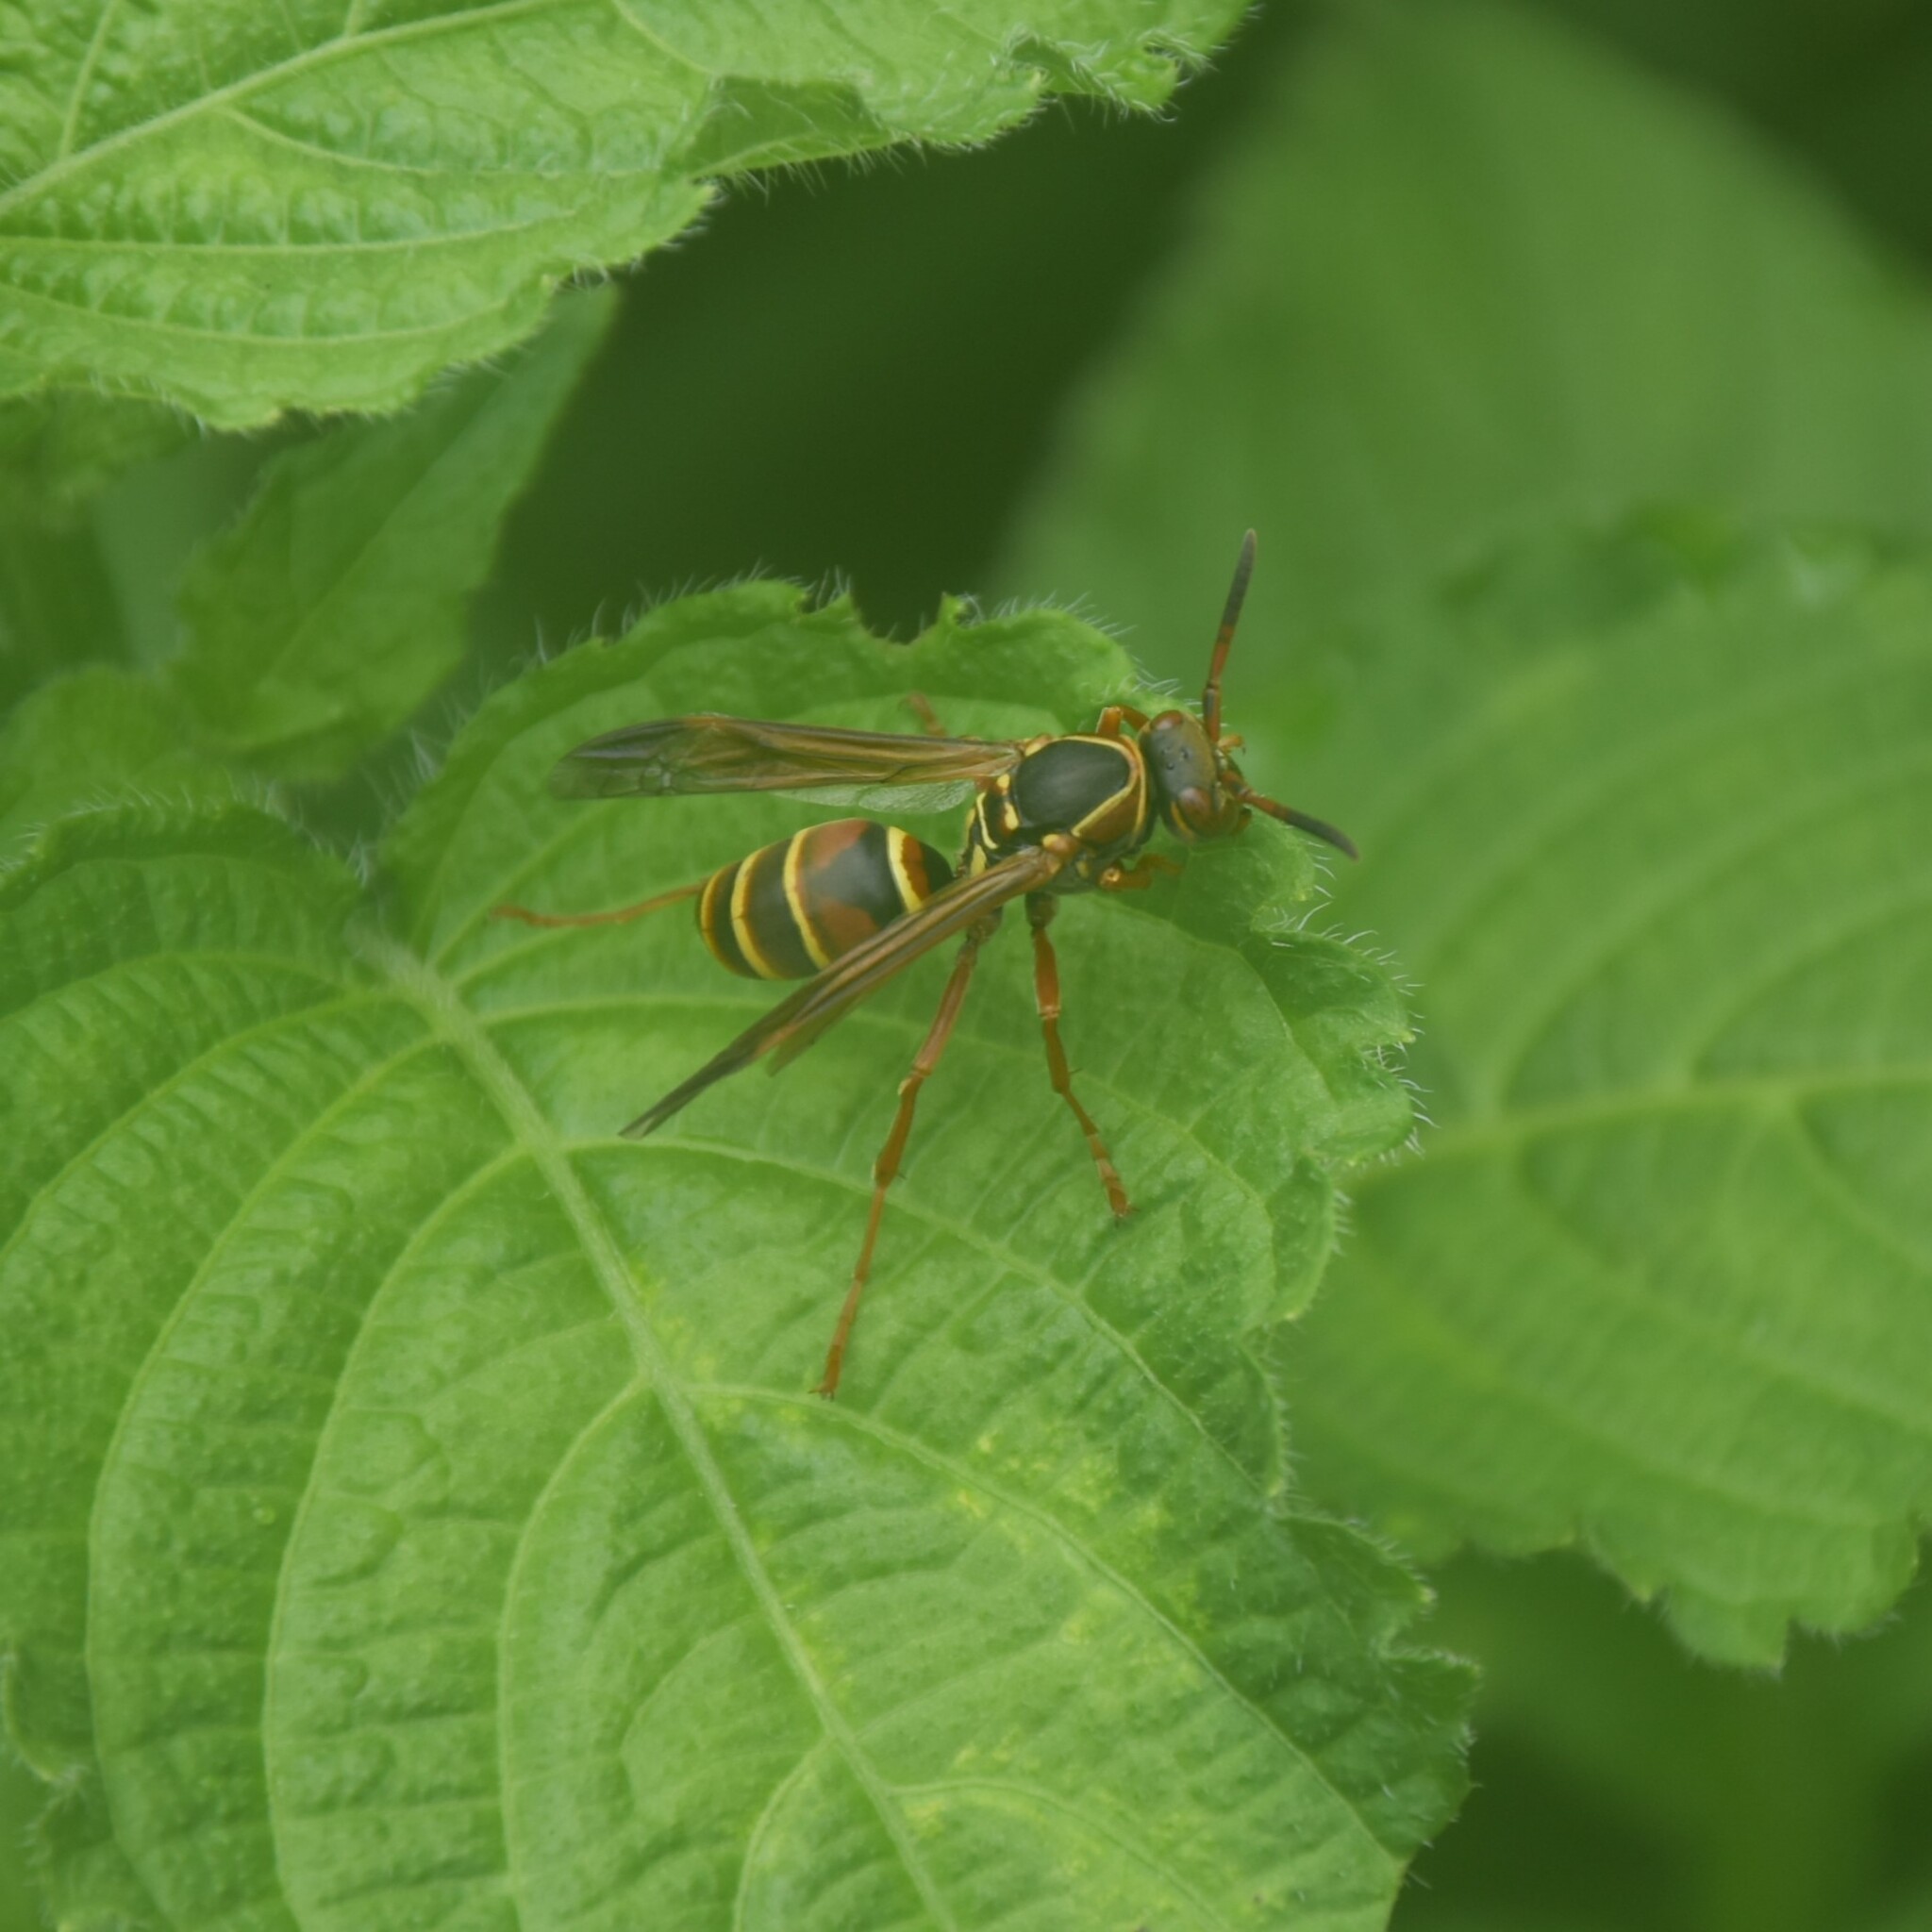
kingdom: Animalia
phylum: Arthropoda
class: Insecta
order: Hymenoptera
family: Eumenidae
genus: Knemodynerus
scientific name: Knemodynerus multimaculatus
